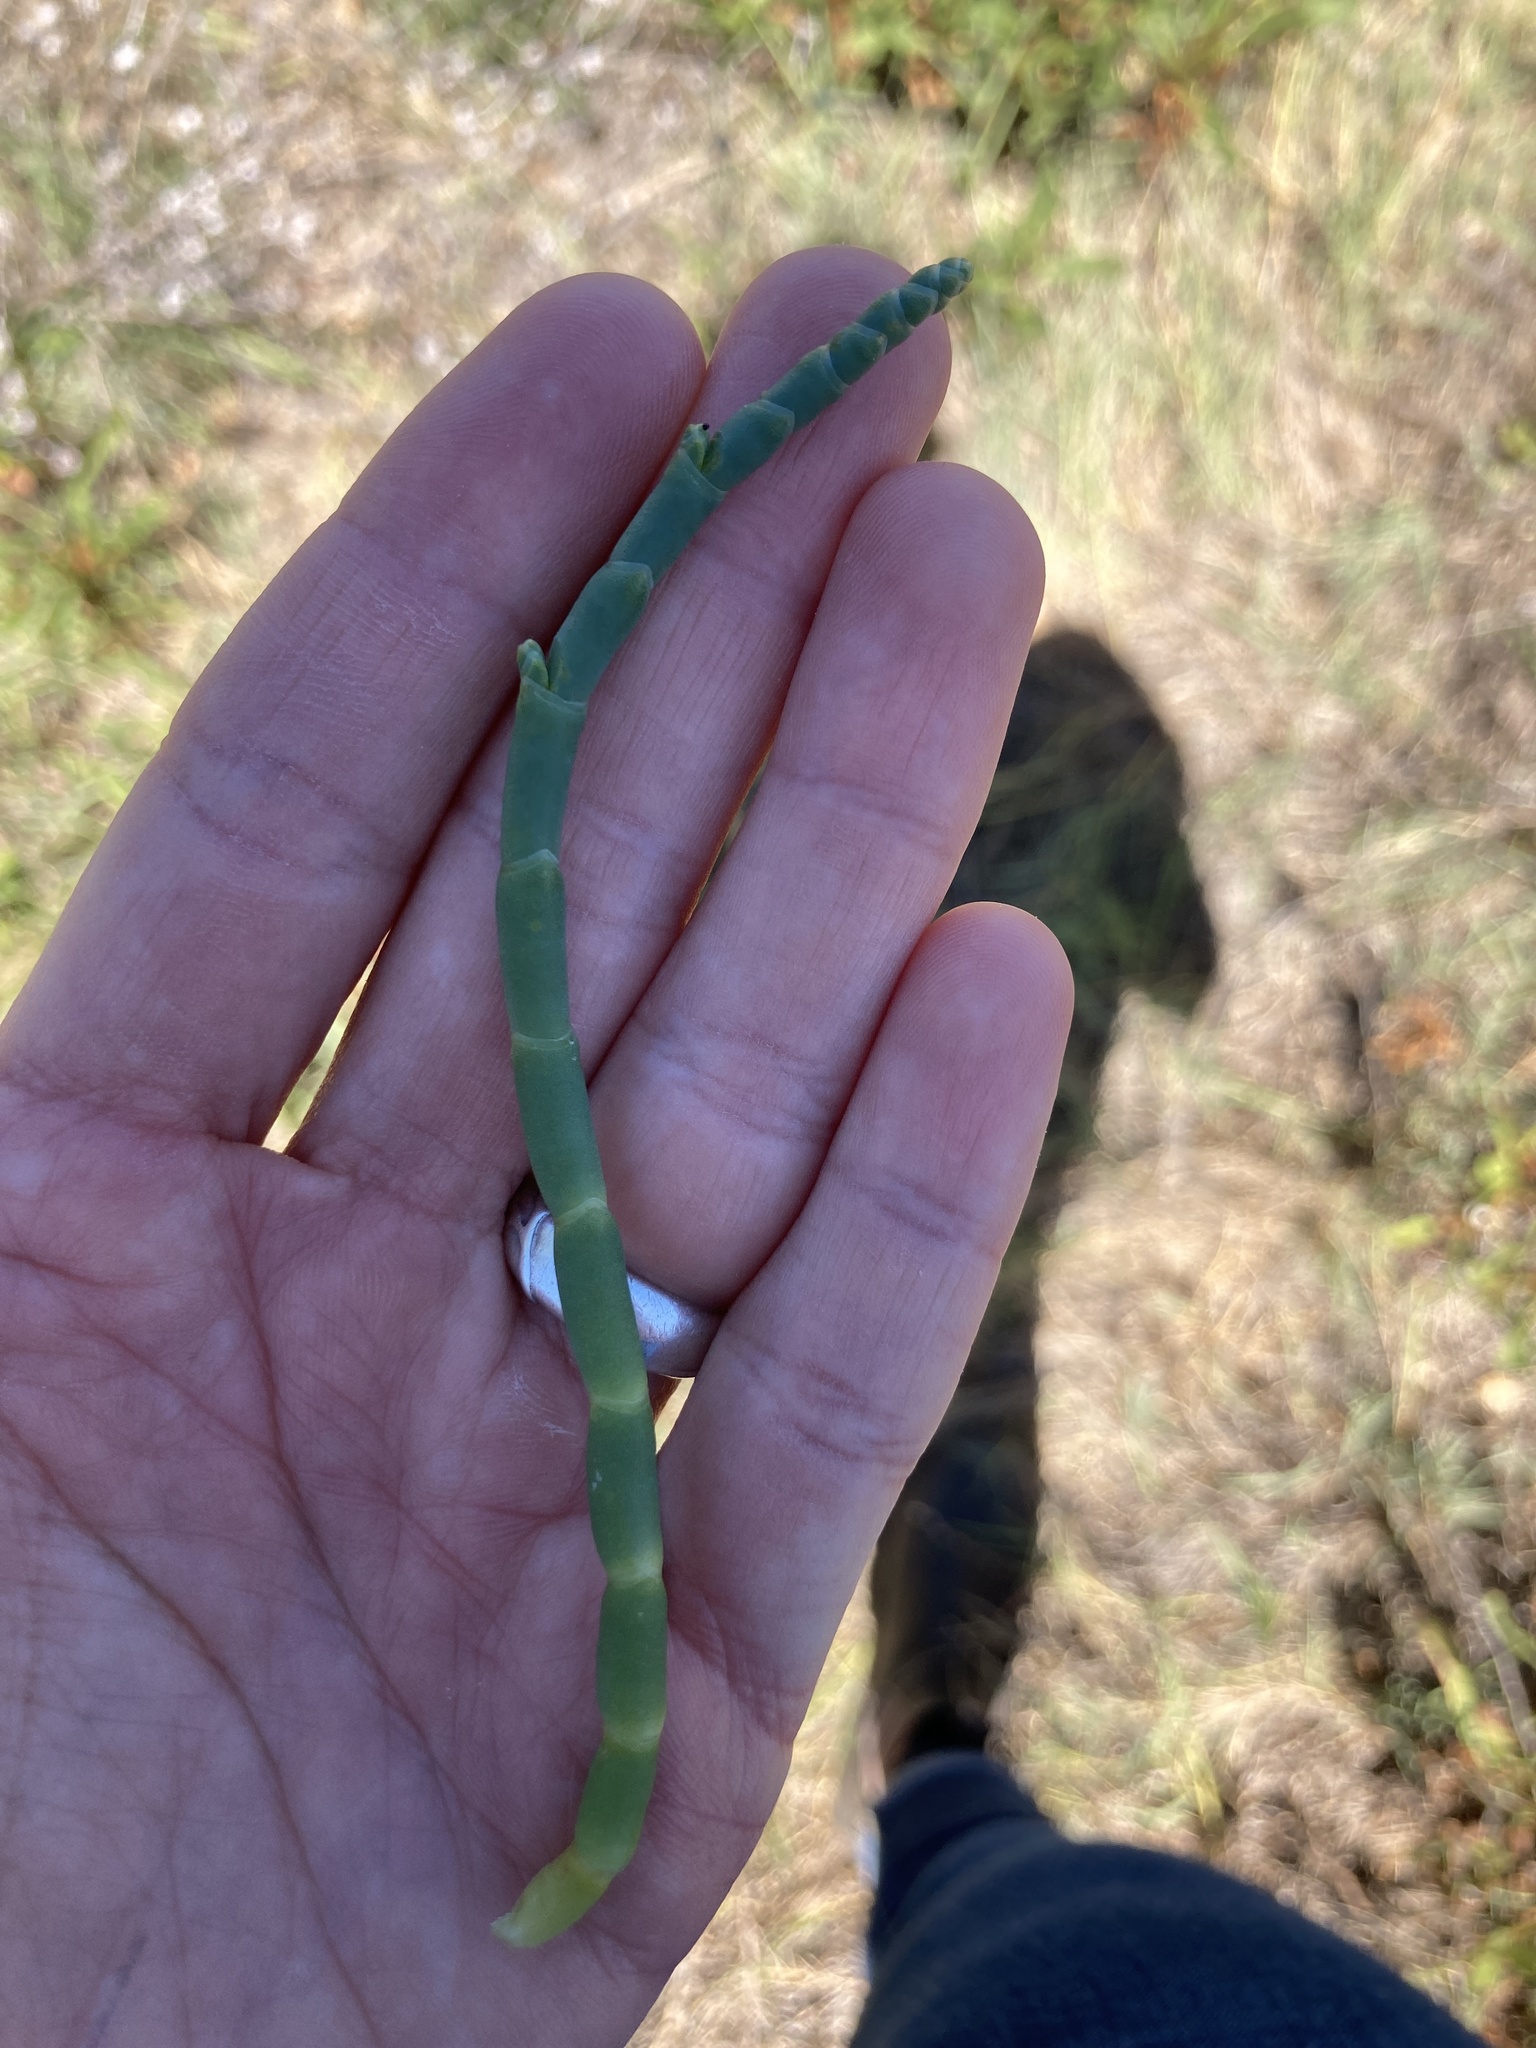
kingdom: Plantae
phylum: Tracheophyta
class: Magnoliopsida
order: Caryophyllales
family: Amaranthaceae
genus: Salicornia
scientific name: Salicornia pacifica
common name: Pacific glasswort
